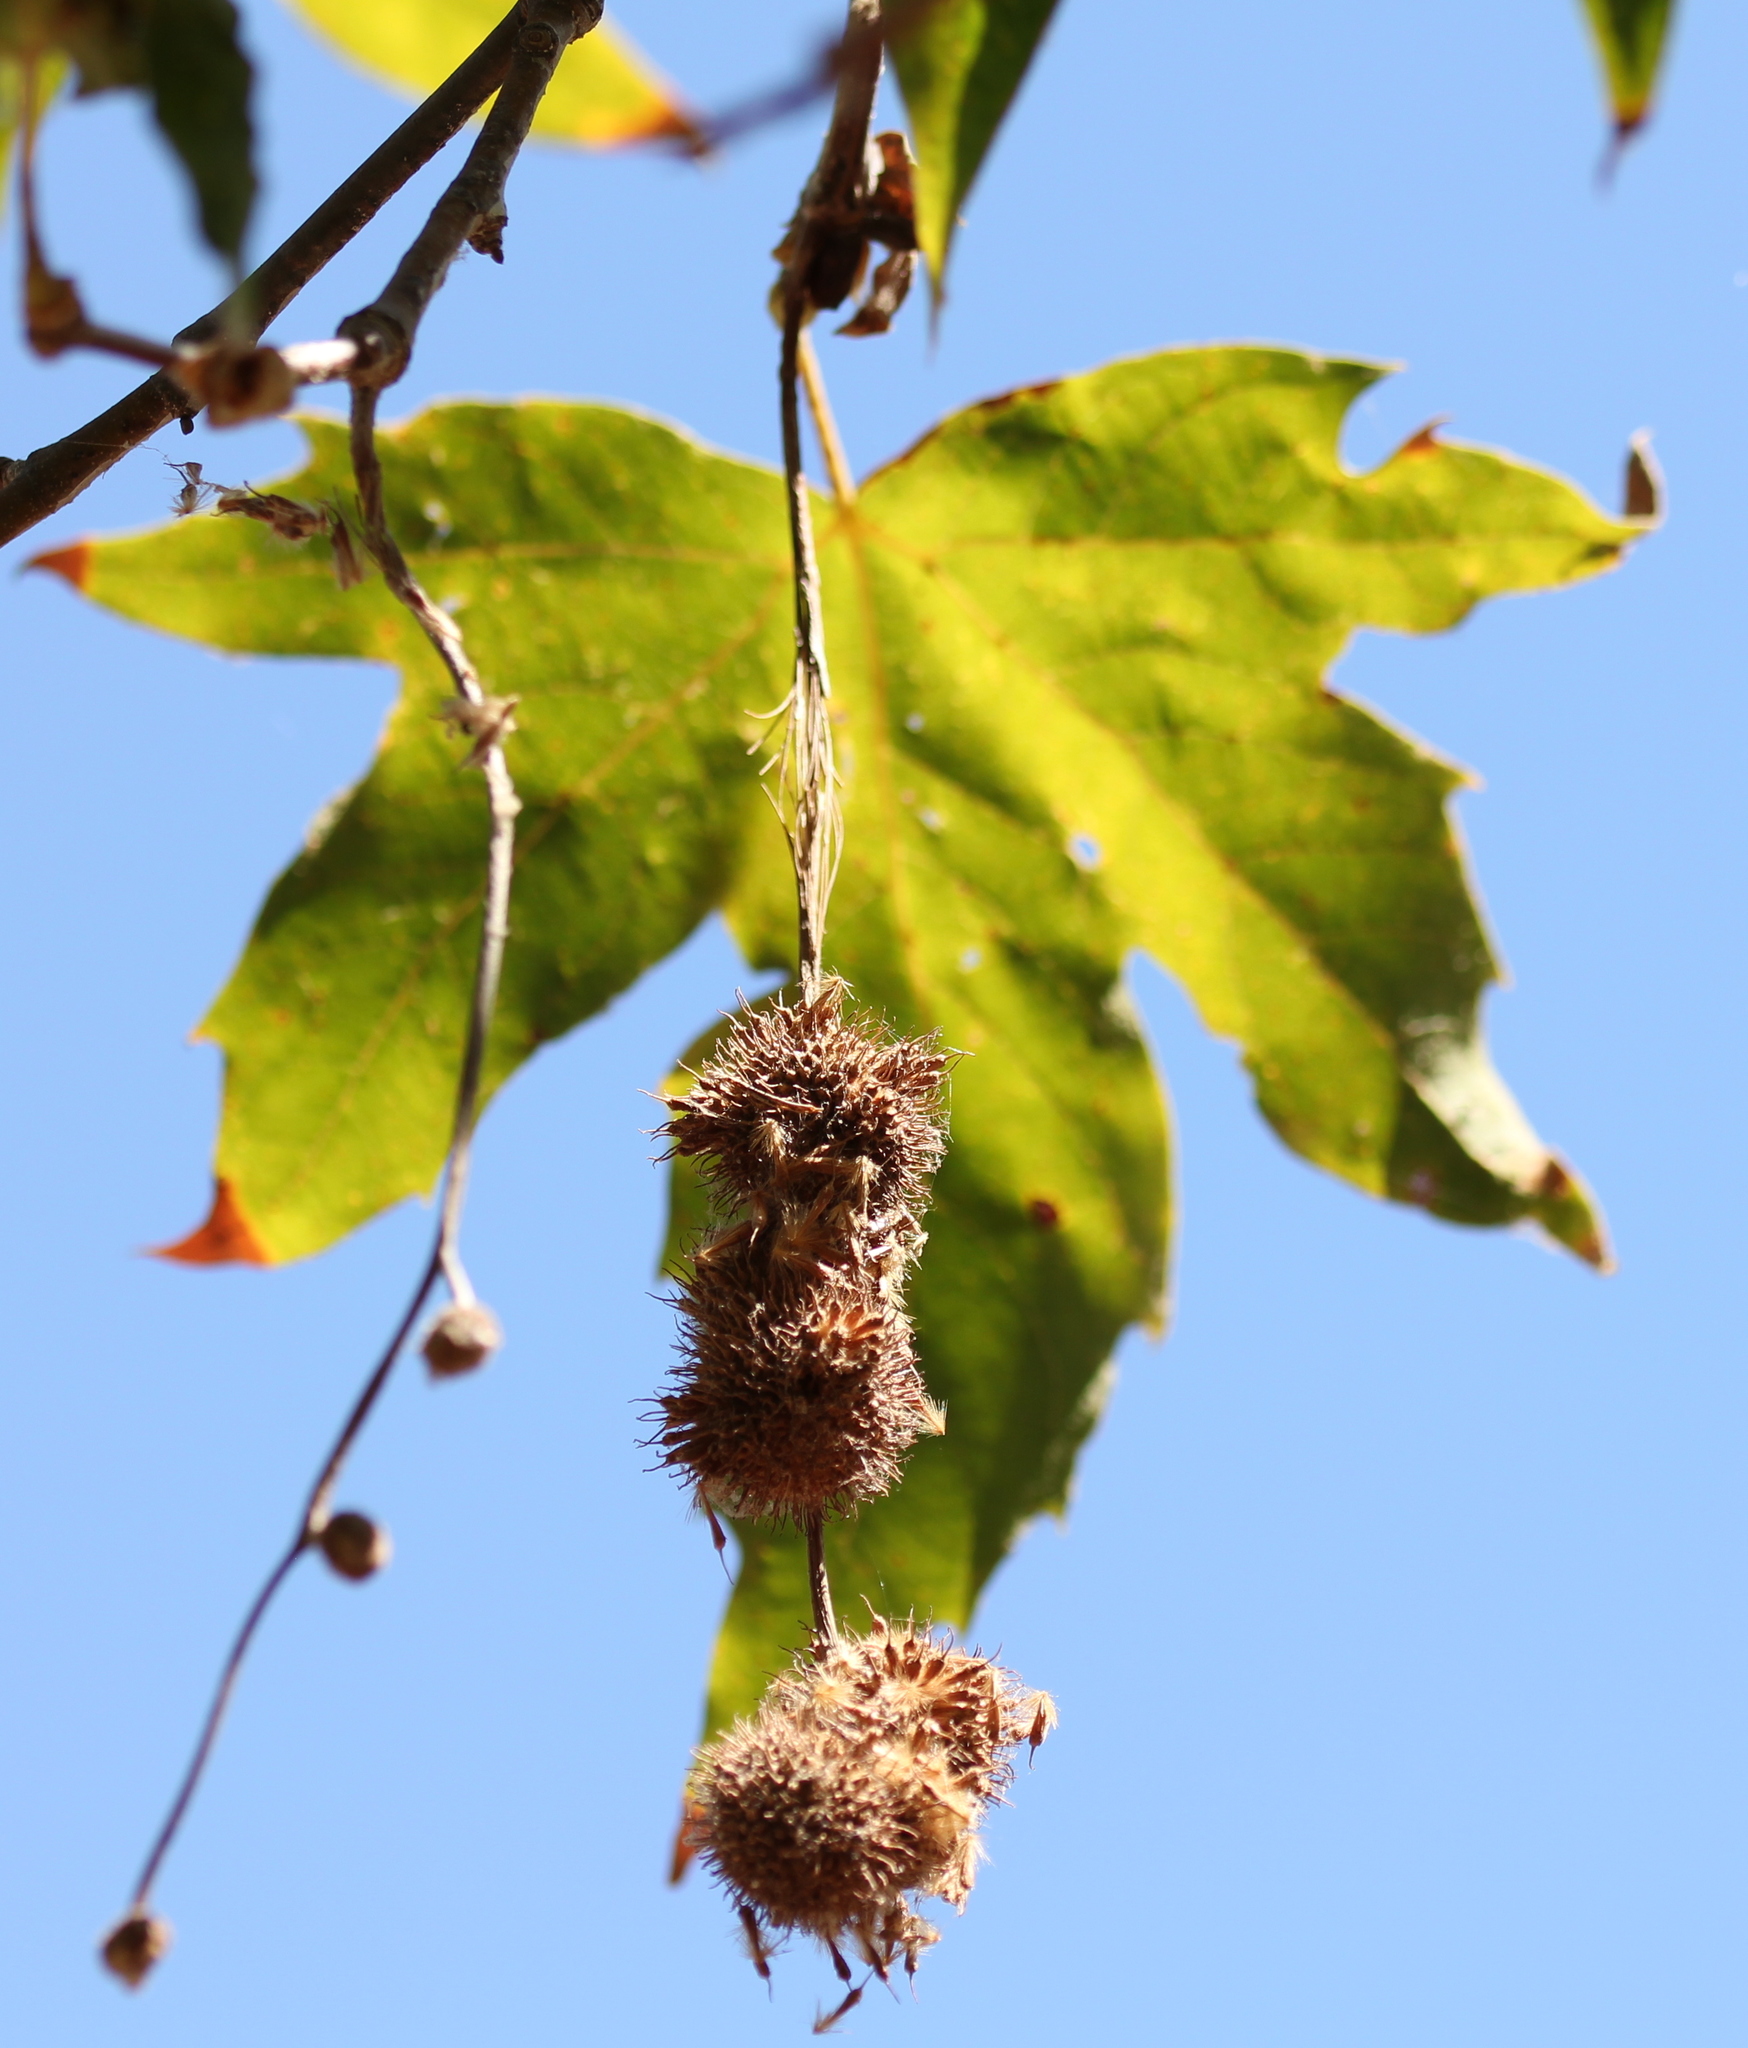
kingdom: Plantae
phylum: Tracheophyta
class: Magnoliopsida
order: Proteales
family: Platanaceae
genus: Platanus
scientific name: Platanus racemosa
